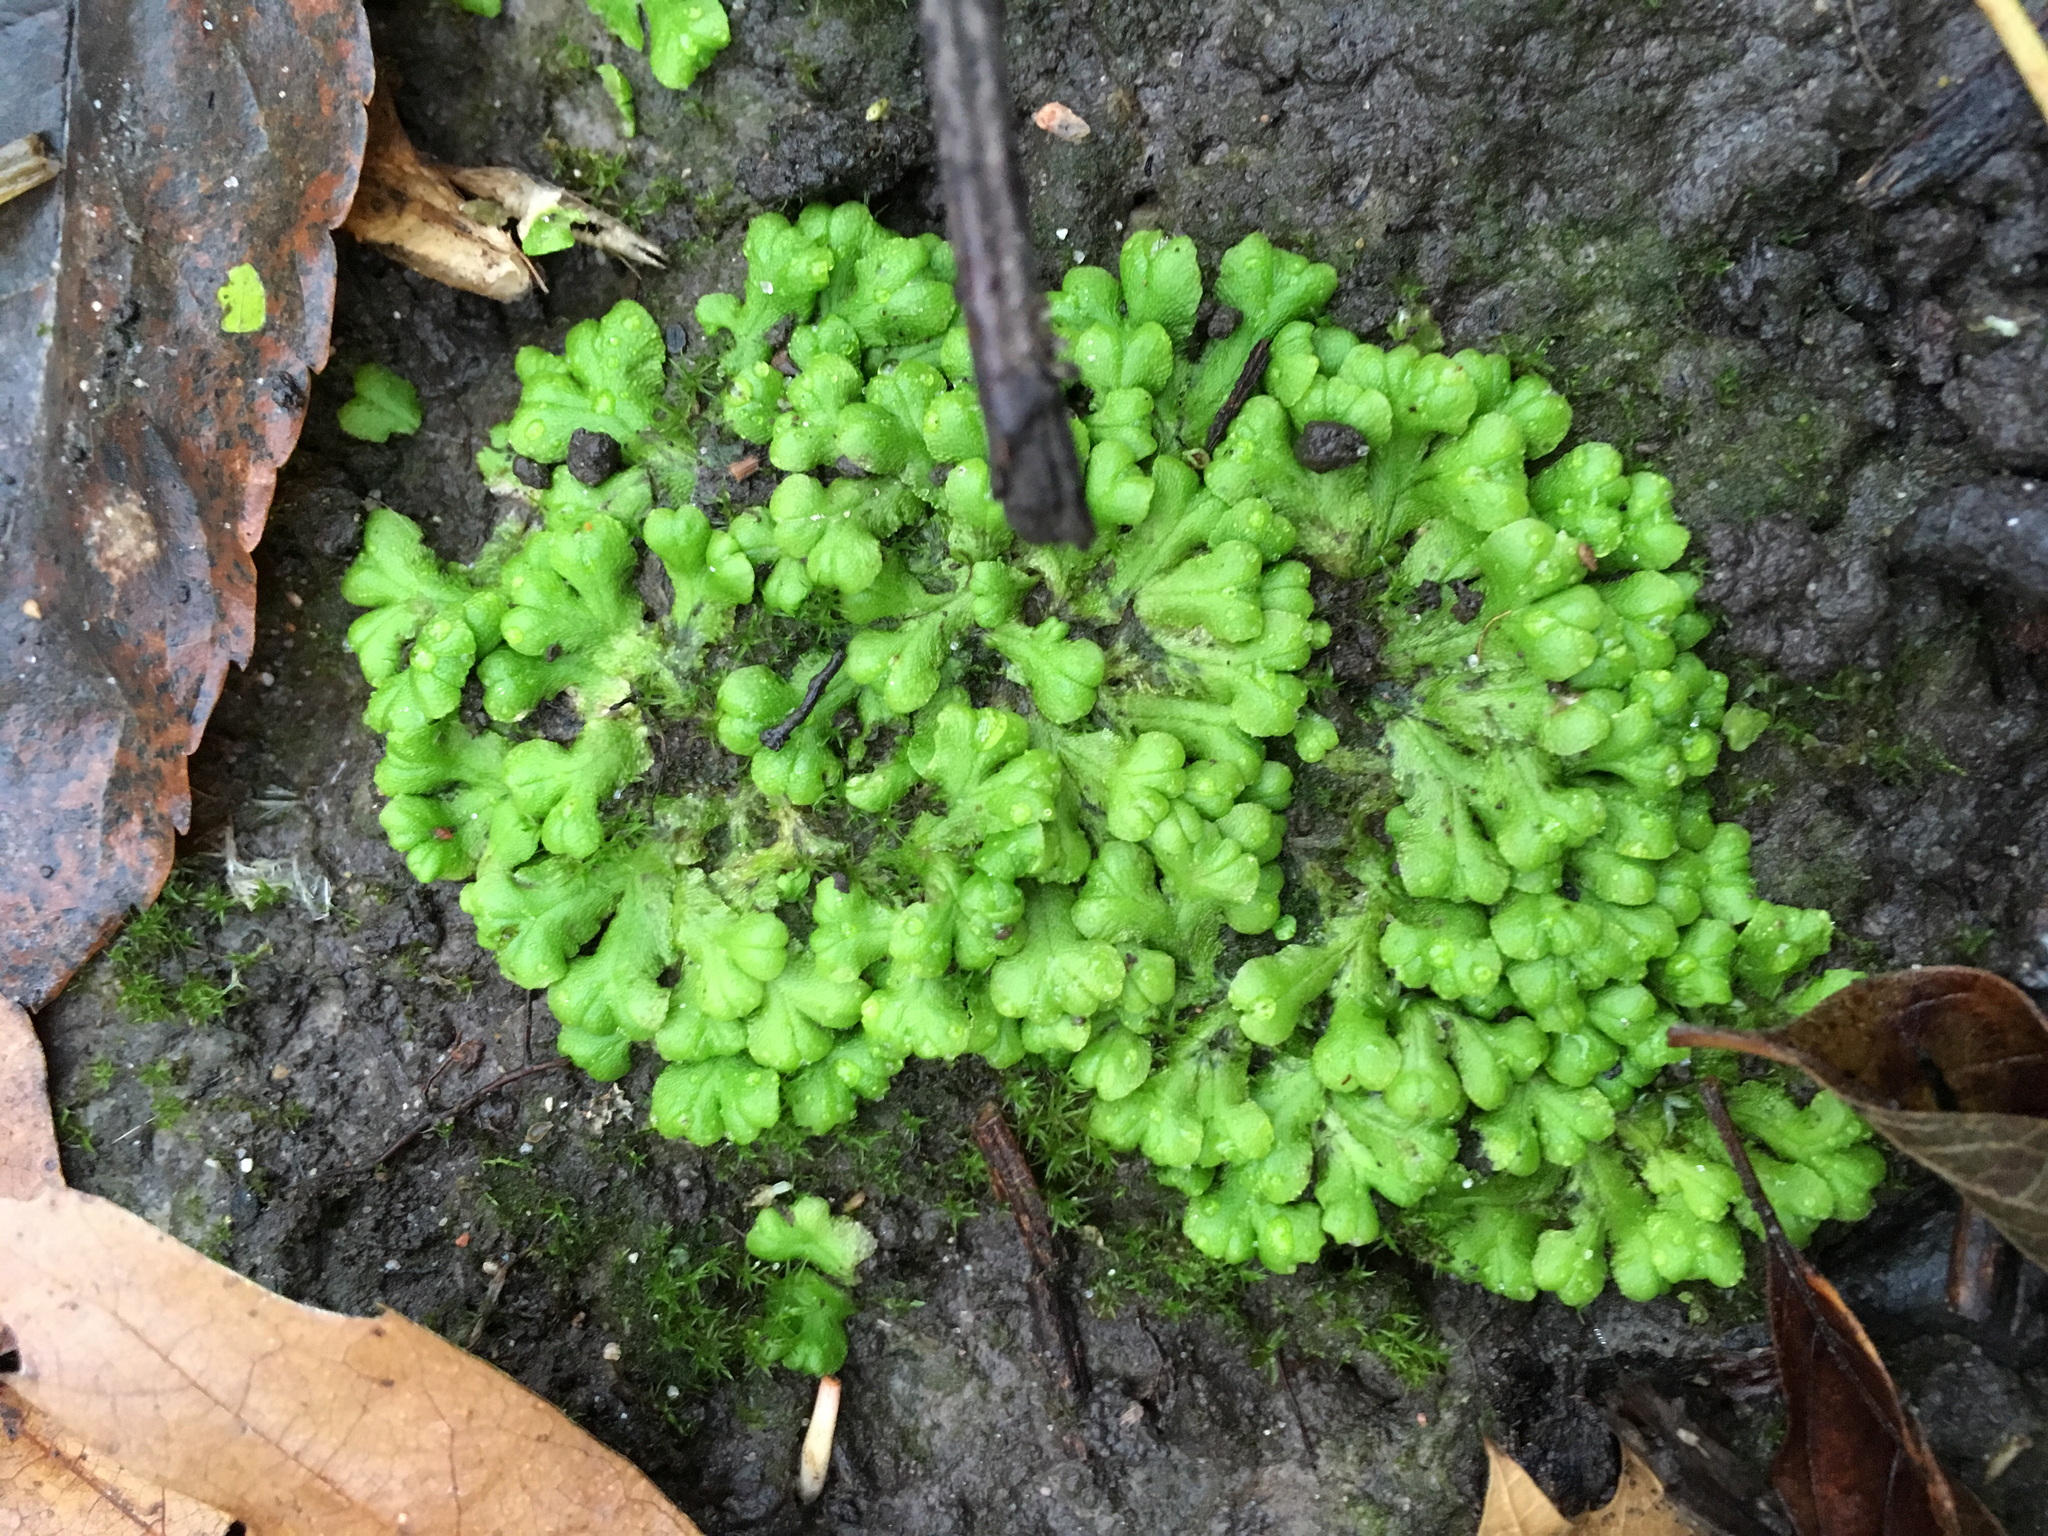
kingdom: Plantae
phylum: Marchantiophyta
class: Marchantiopsida
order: Marchantiales
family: Ricciaceae
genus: Ricciocarpos
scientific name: Ricciocarpos natans
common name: Purple-fringed liverwort
